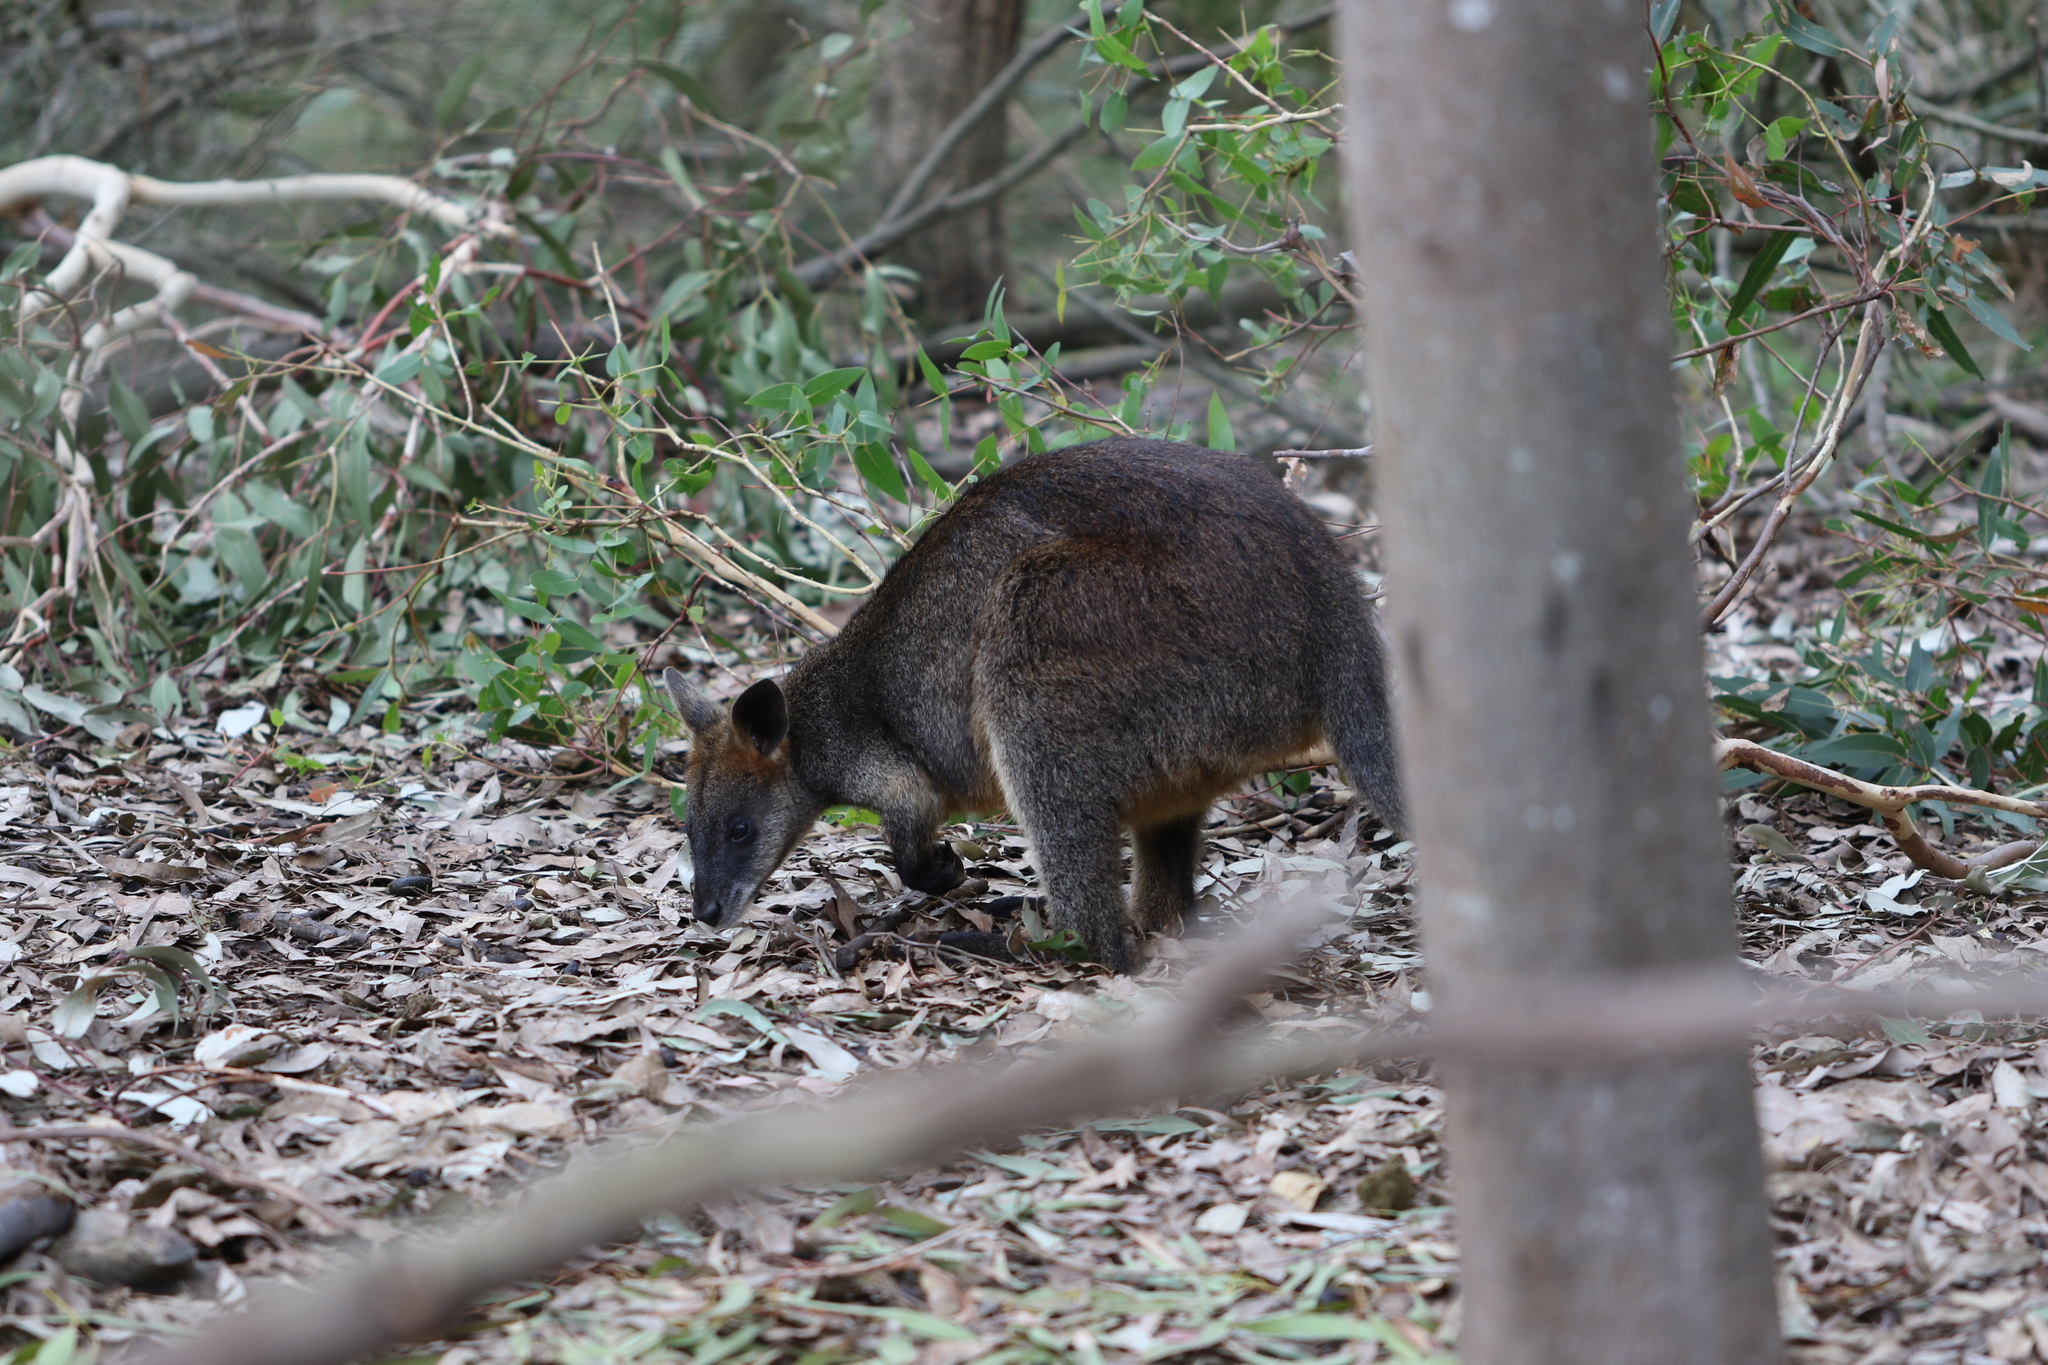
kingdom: Animalia
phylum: Chordata
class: Mammalia
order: Diprotodontia
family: Macropodidae
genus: Wallabia
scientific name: Wallabia bicolor
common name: Swamp wallaby
